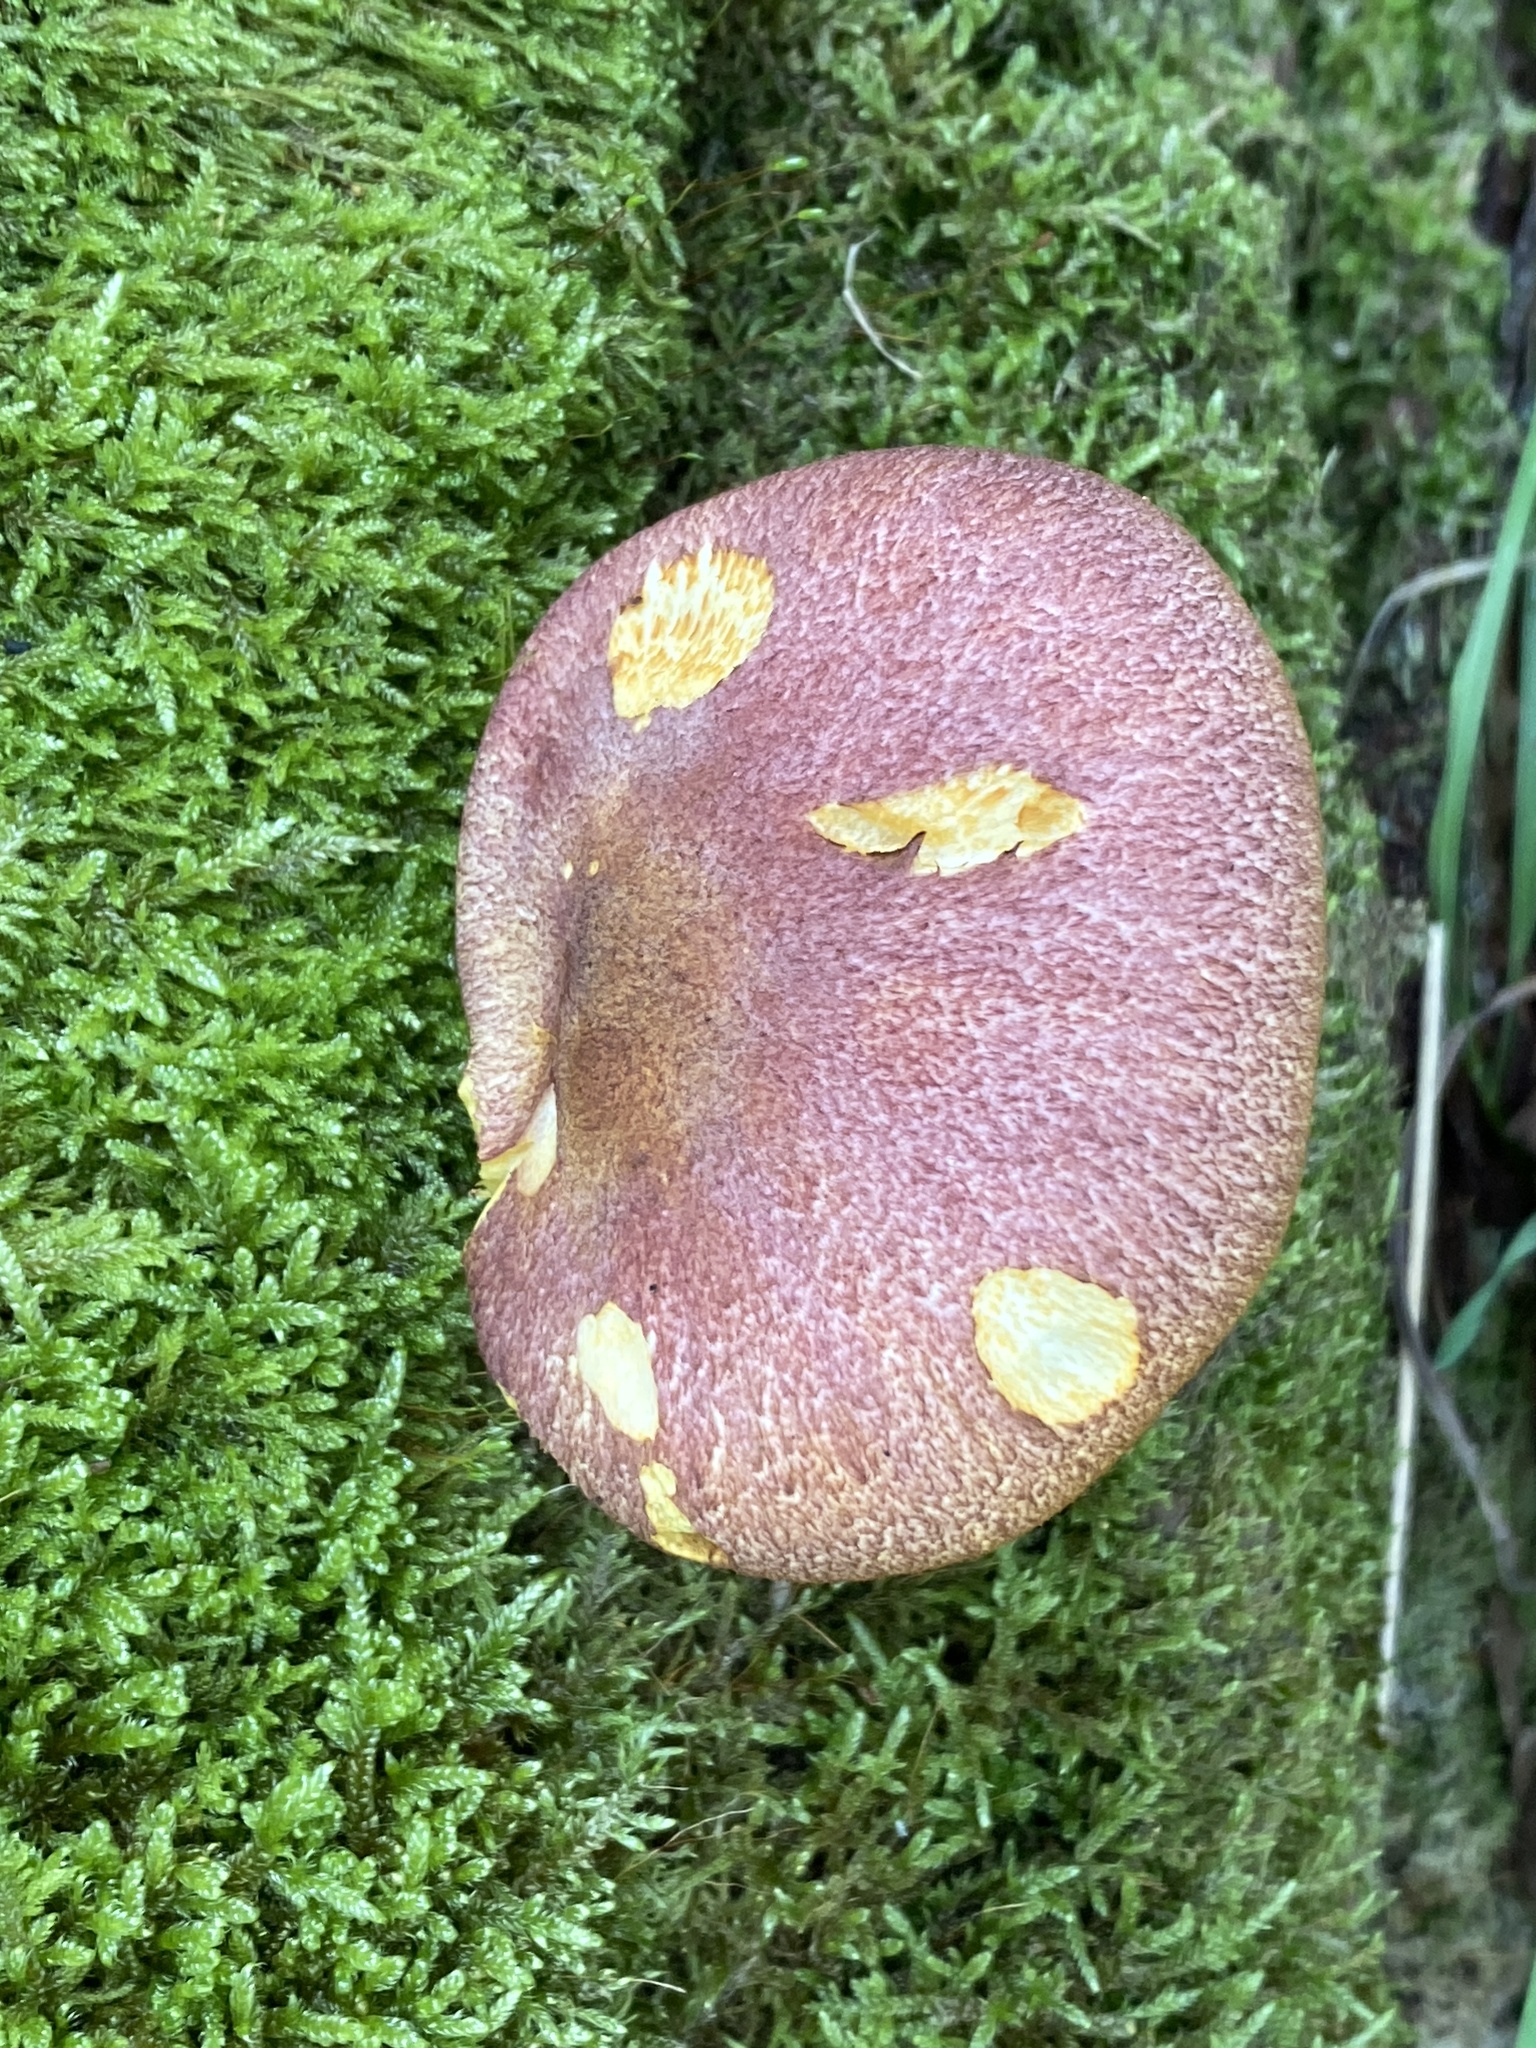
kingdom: Fungi
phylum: Basidiomycota
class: Agaricomycetes
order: Agaricales
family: Tricholomataceae
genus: Tricholomopsis
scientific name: Tricholomopsis rutilans
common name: Plums and custard
